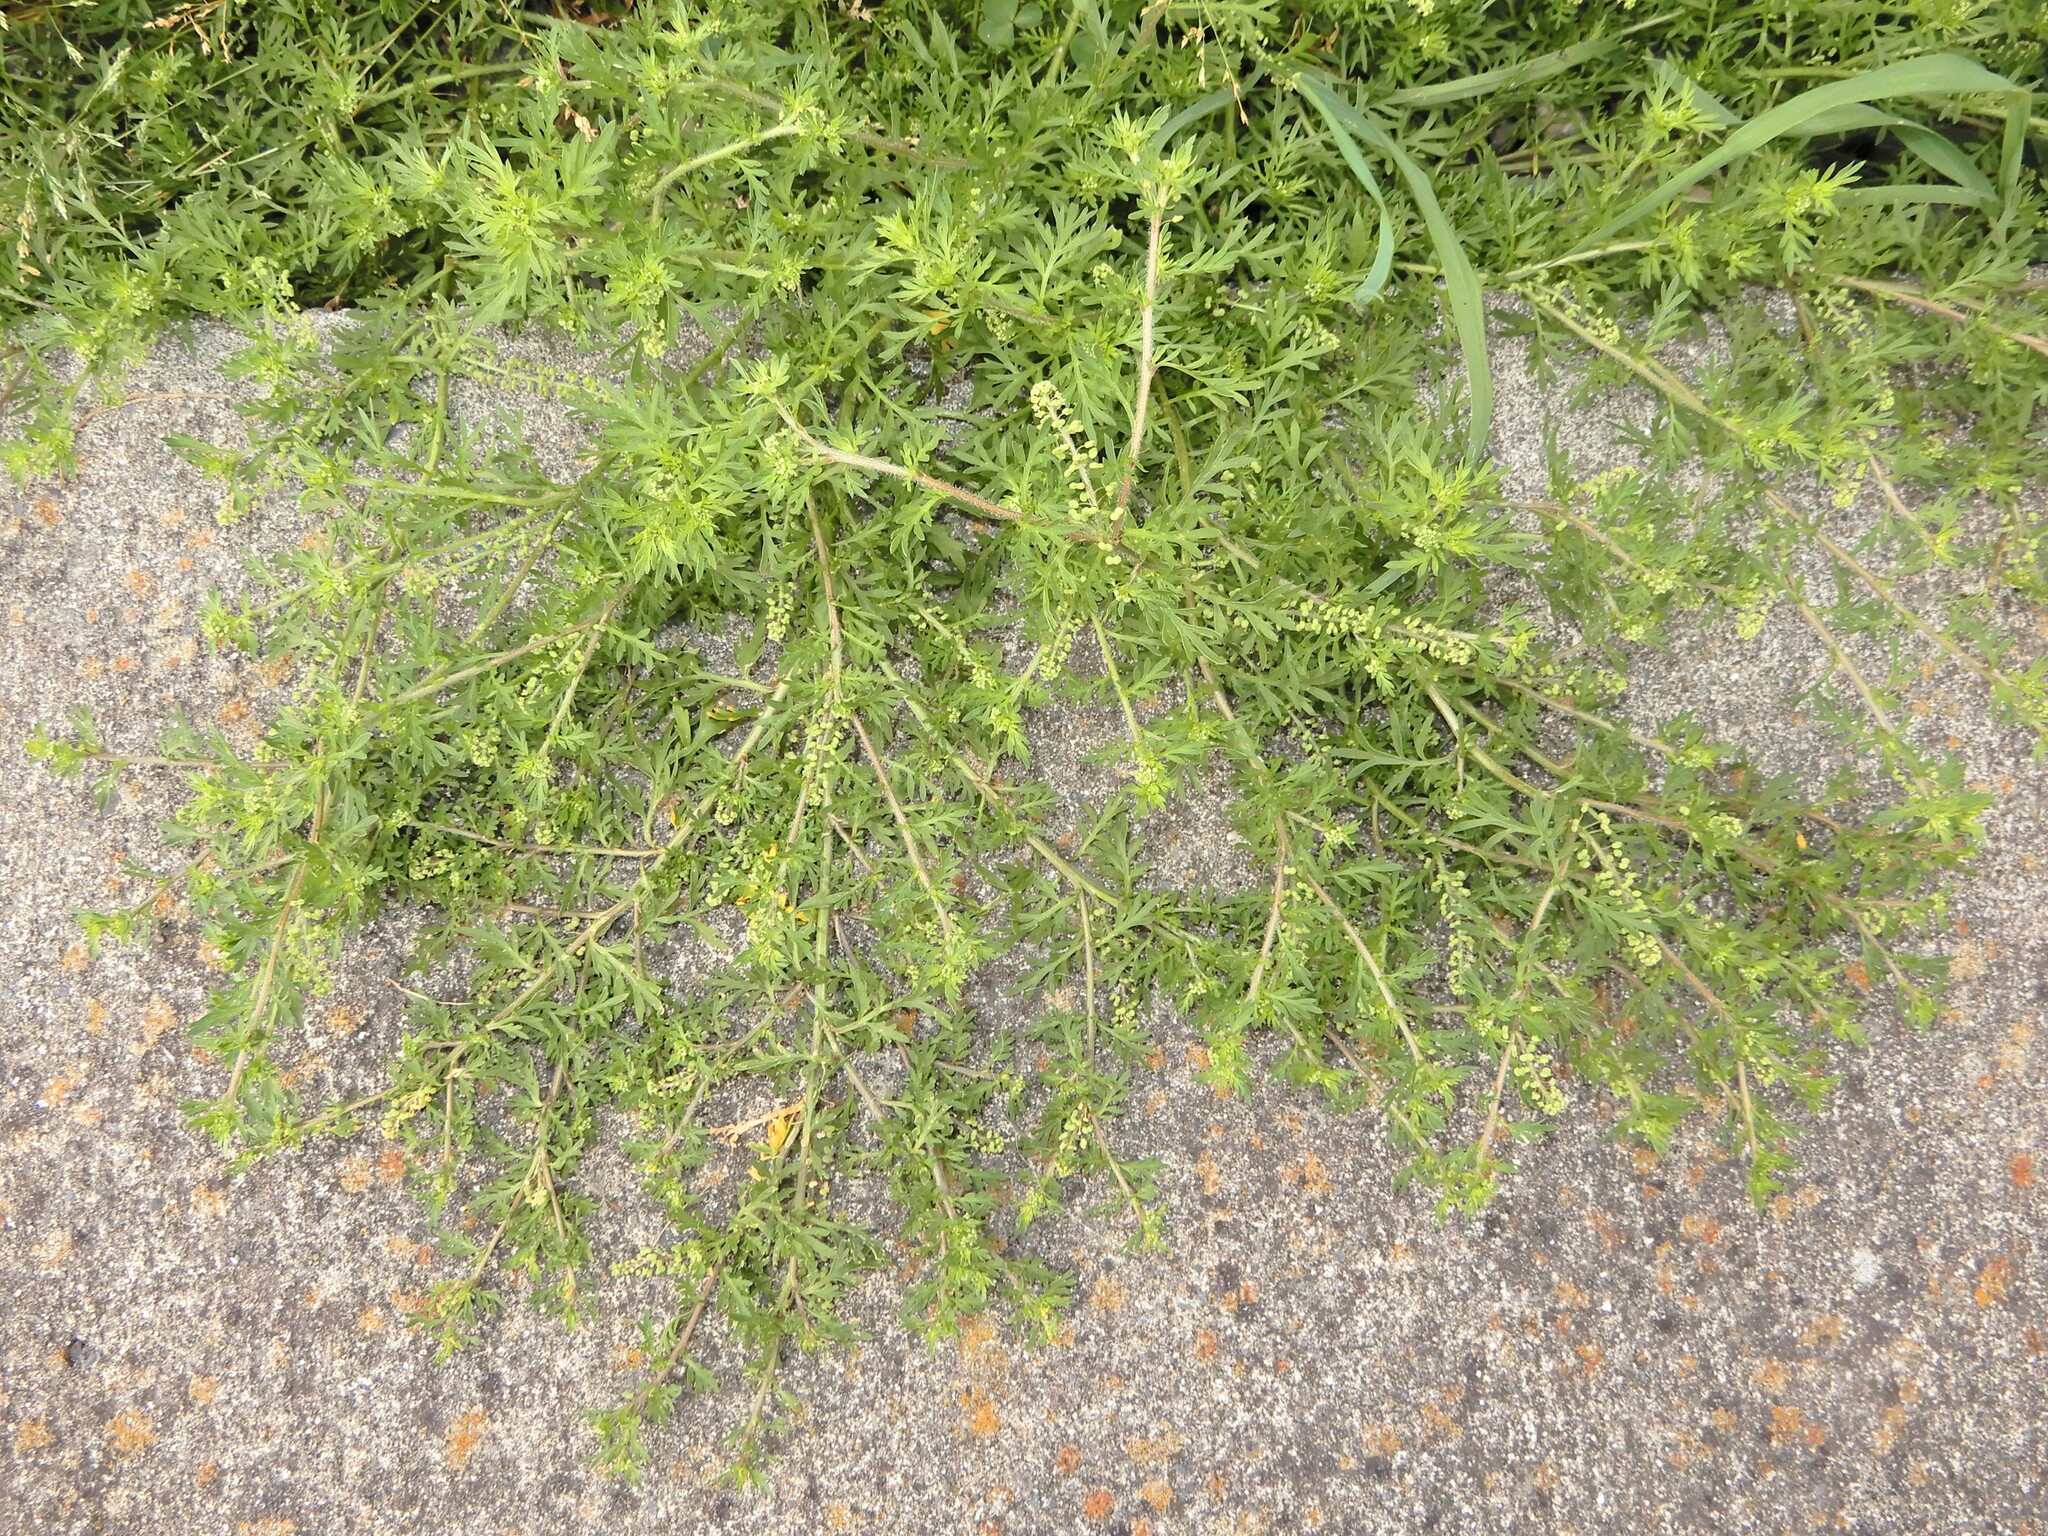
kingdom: Plantae
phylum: Tracheophyta
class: Magnoliopsida
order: Brassicales
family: Brassicaceae
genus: Lepidium
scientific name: Lepidium didymum
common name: Lesser swinecress
